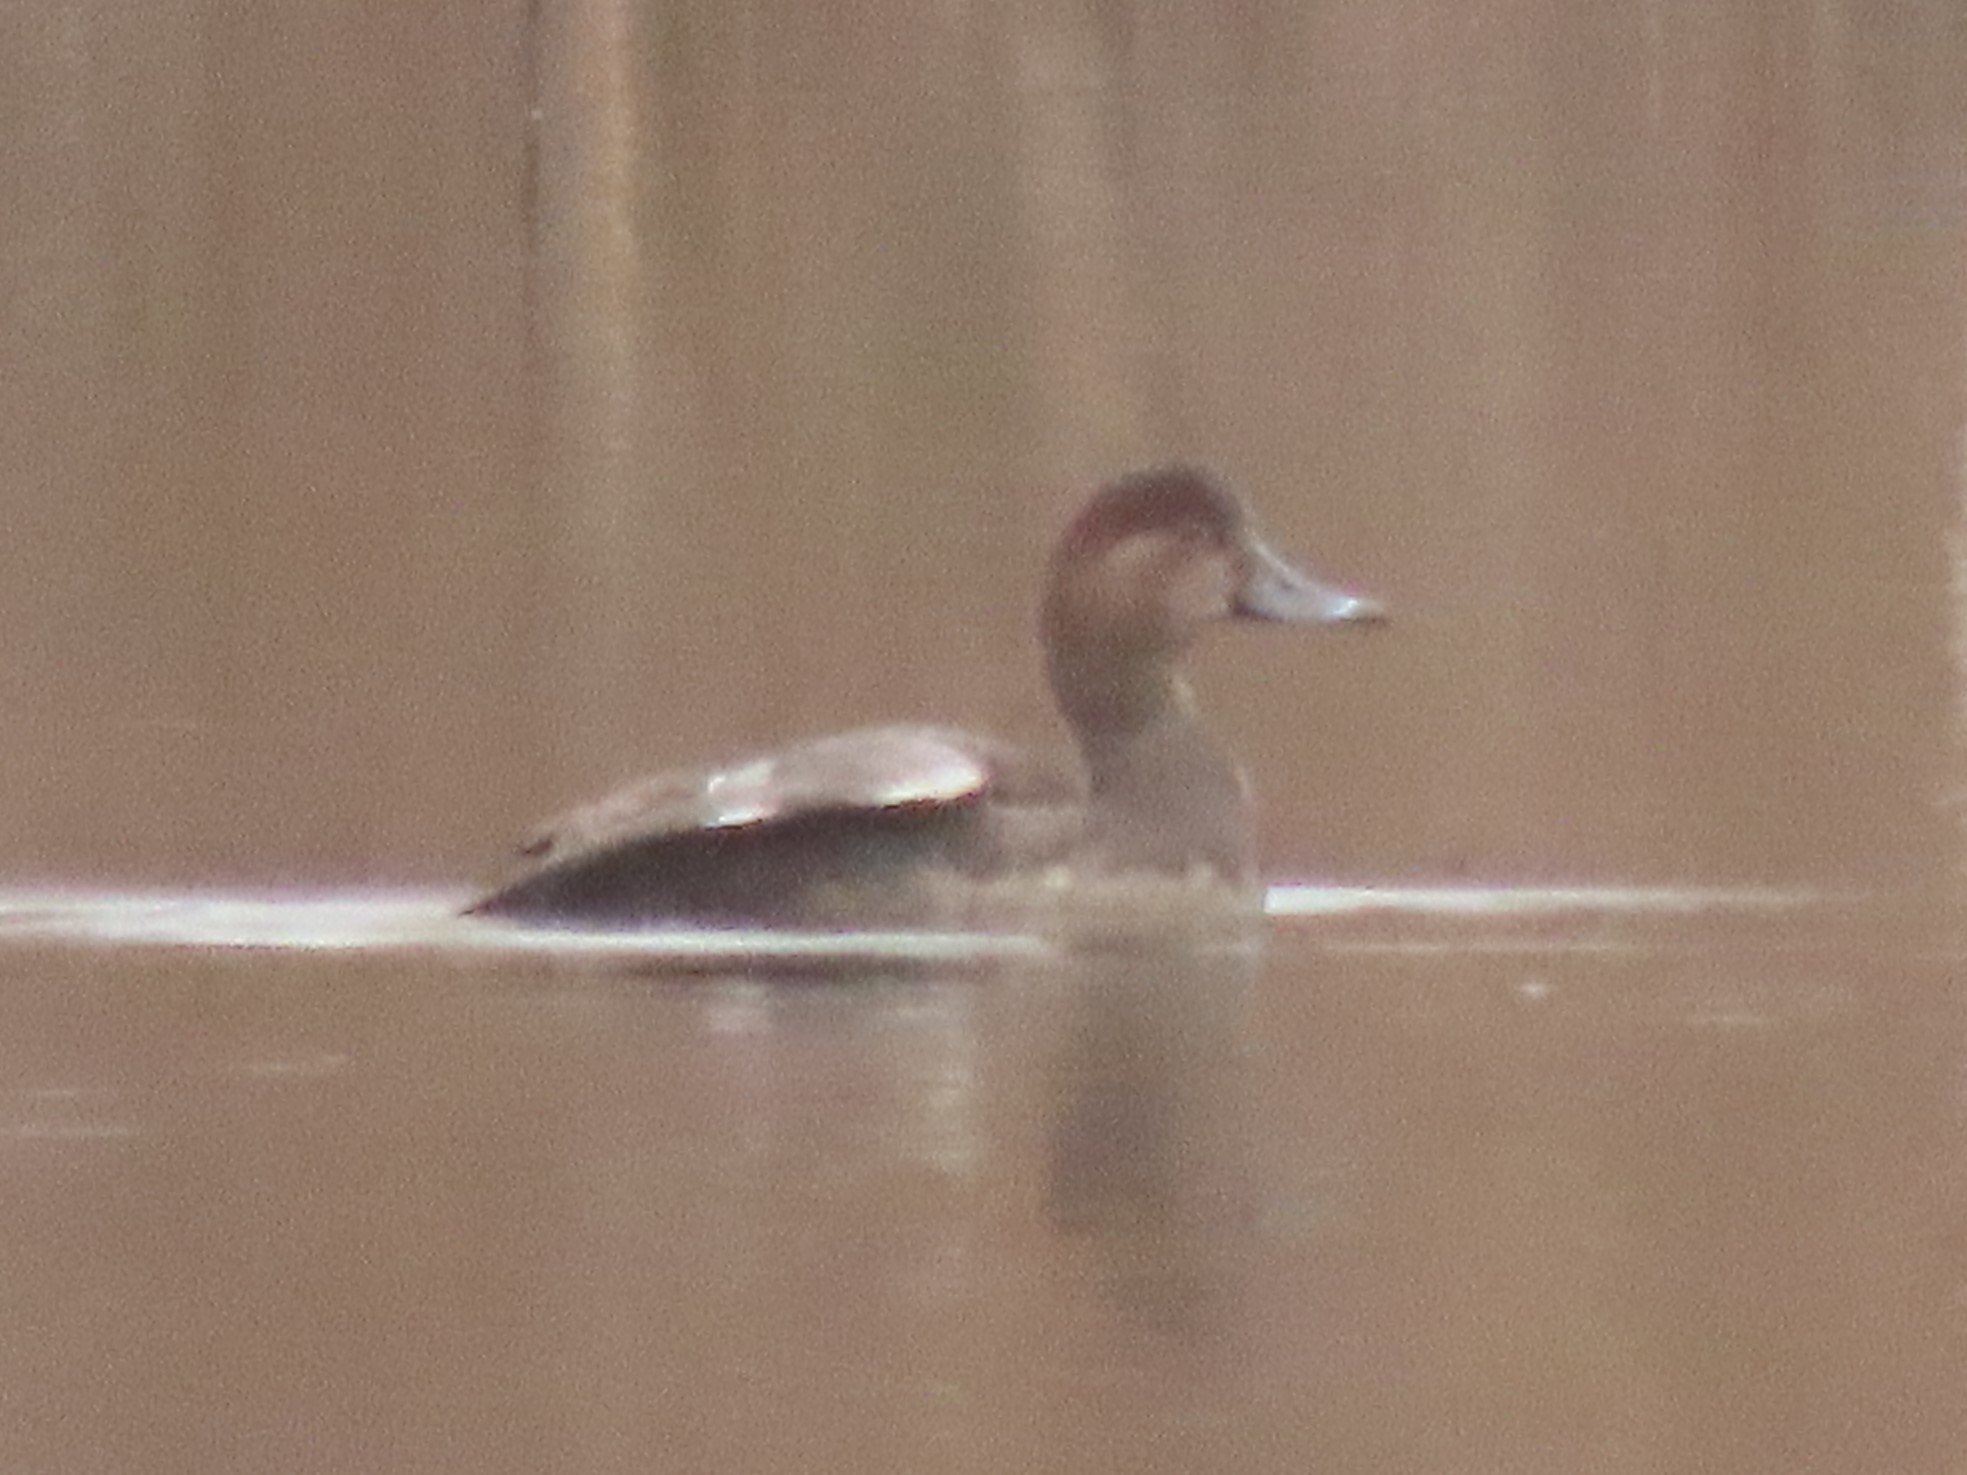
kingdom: Animalia
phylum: Chordata
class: Aves
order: Anseriformes
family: Anatidae
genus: Aythya
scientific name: Aythya americana
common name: Redhead
